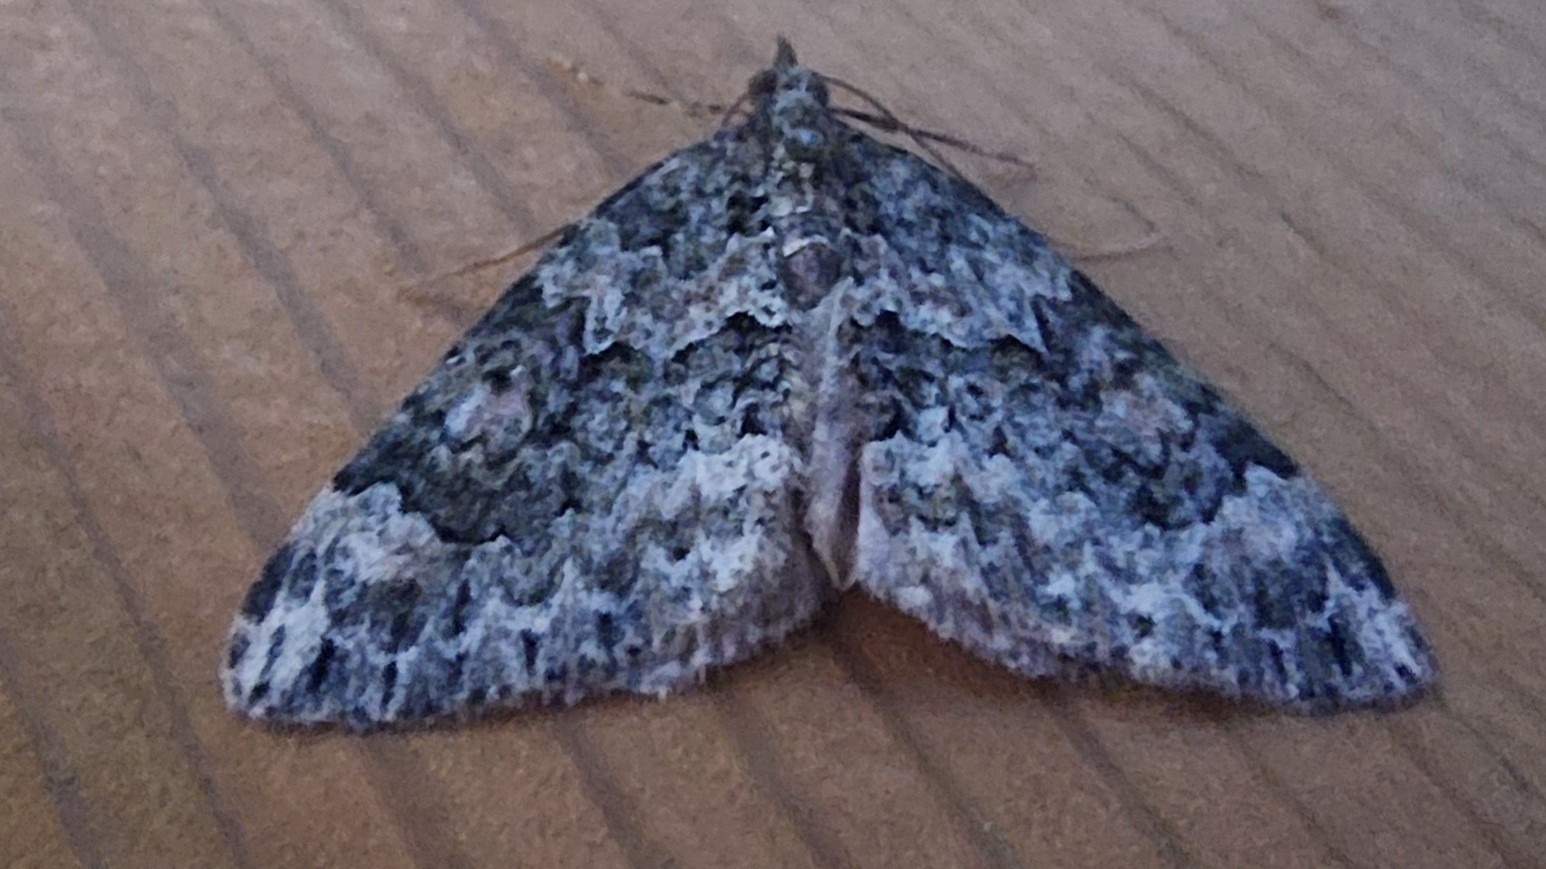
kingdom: Animalia
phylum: Arthropoda
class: Insecta
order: Lepidoptera
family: Geometridae
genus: Chloroclysta
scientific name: Chloroclysta miata
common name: Autumn green carpet
